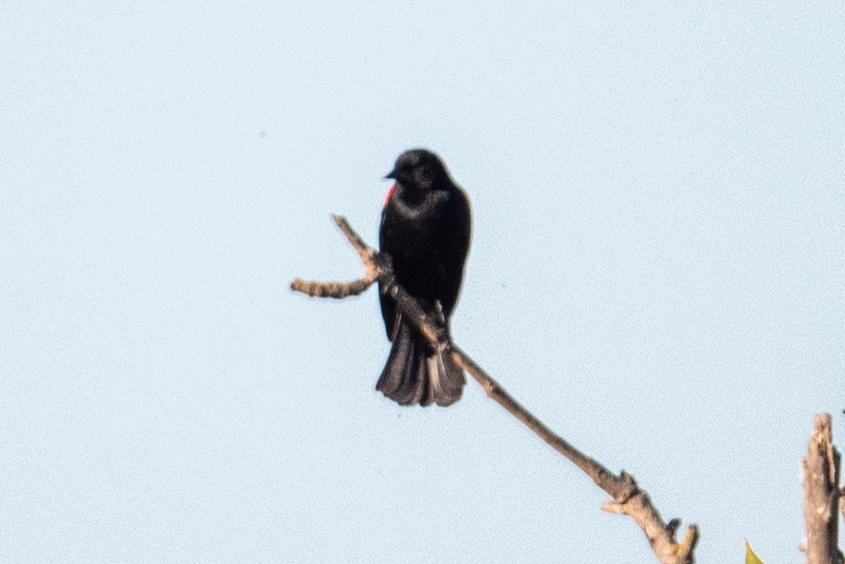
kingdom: Animalia
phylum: Chordata
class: Aves
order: Passeriformes
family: Icteridae
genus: Agelaius
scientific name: Agelaius phoeniceus
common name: Red-winged blackbird
